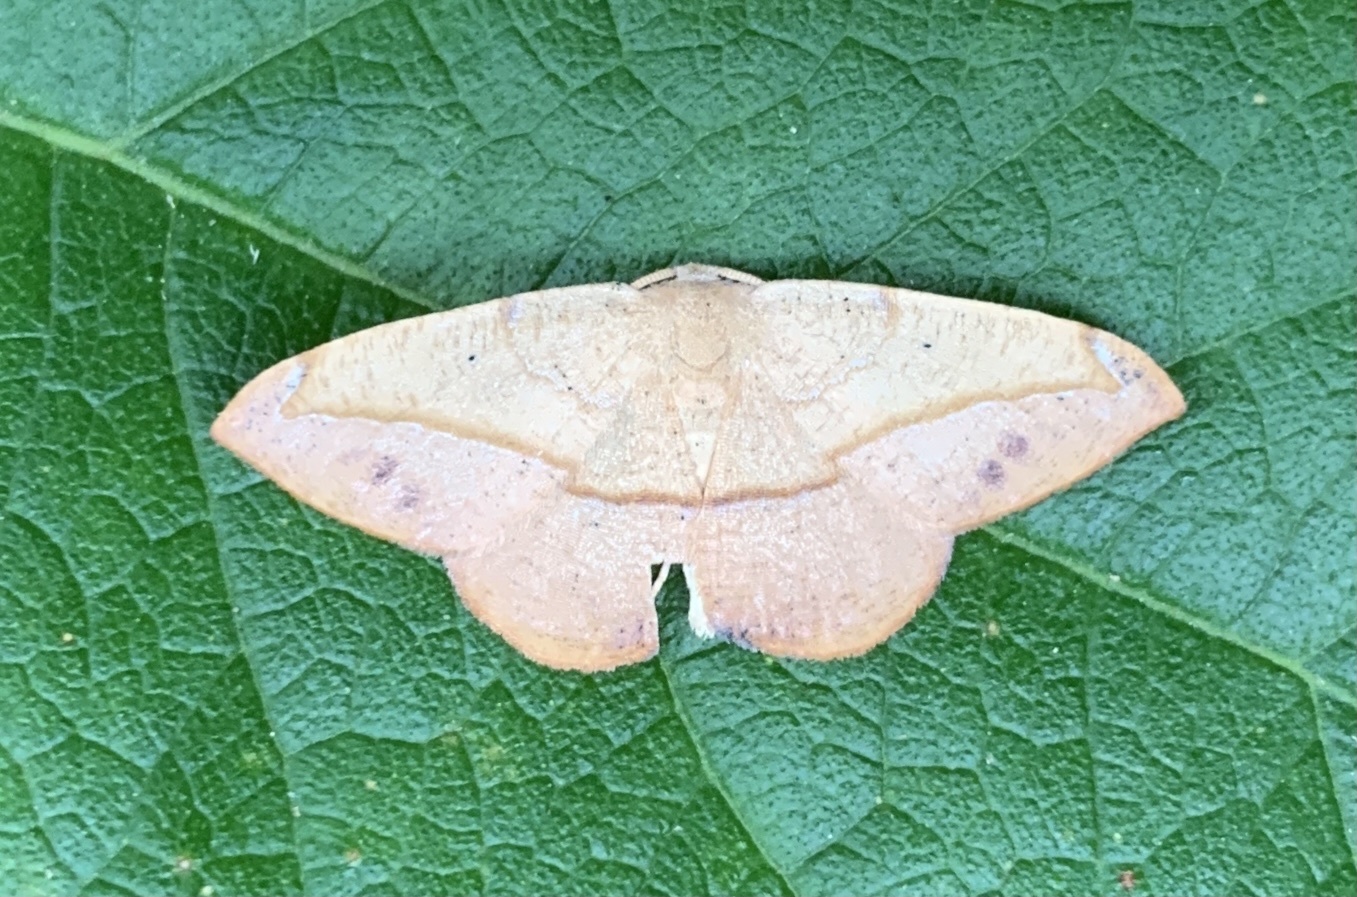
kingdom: Animalia
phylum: Arthropoda
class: Insecta
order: Lepidoptera
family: Geometridae
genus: Patalene
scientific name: Patalene olyzonaria
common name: Juniper geometer moth
